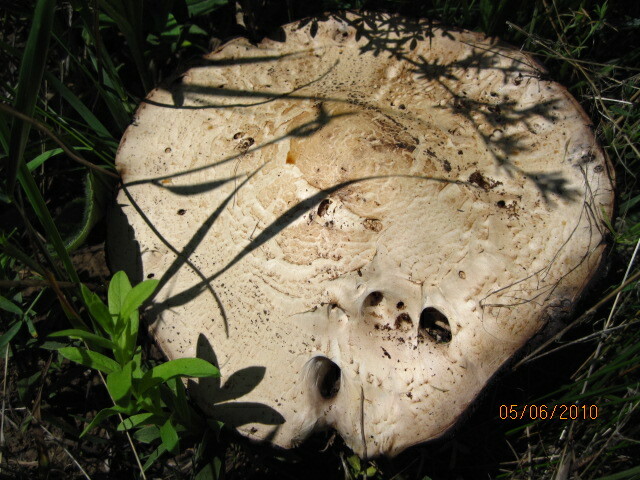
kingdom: Fungi
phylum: Basidiomycota
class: Agaricomycetes
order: Agaricales
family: Agaricaceae
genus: Agaricus
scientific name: Agaricus arvensis
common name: Horse mushroom
